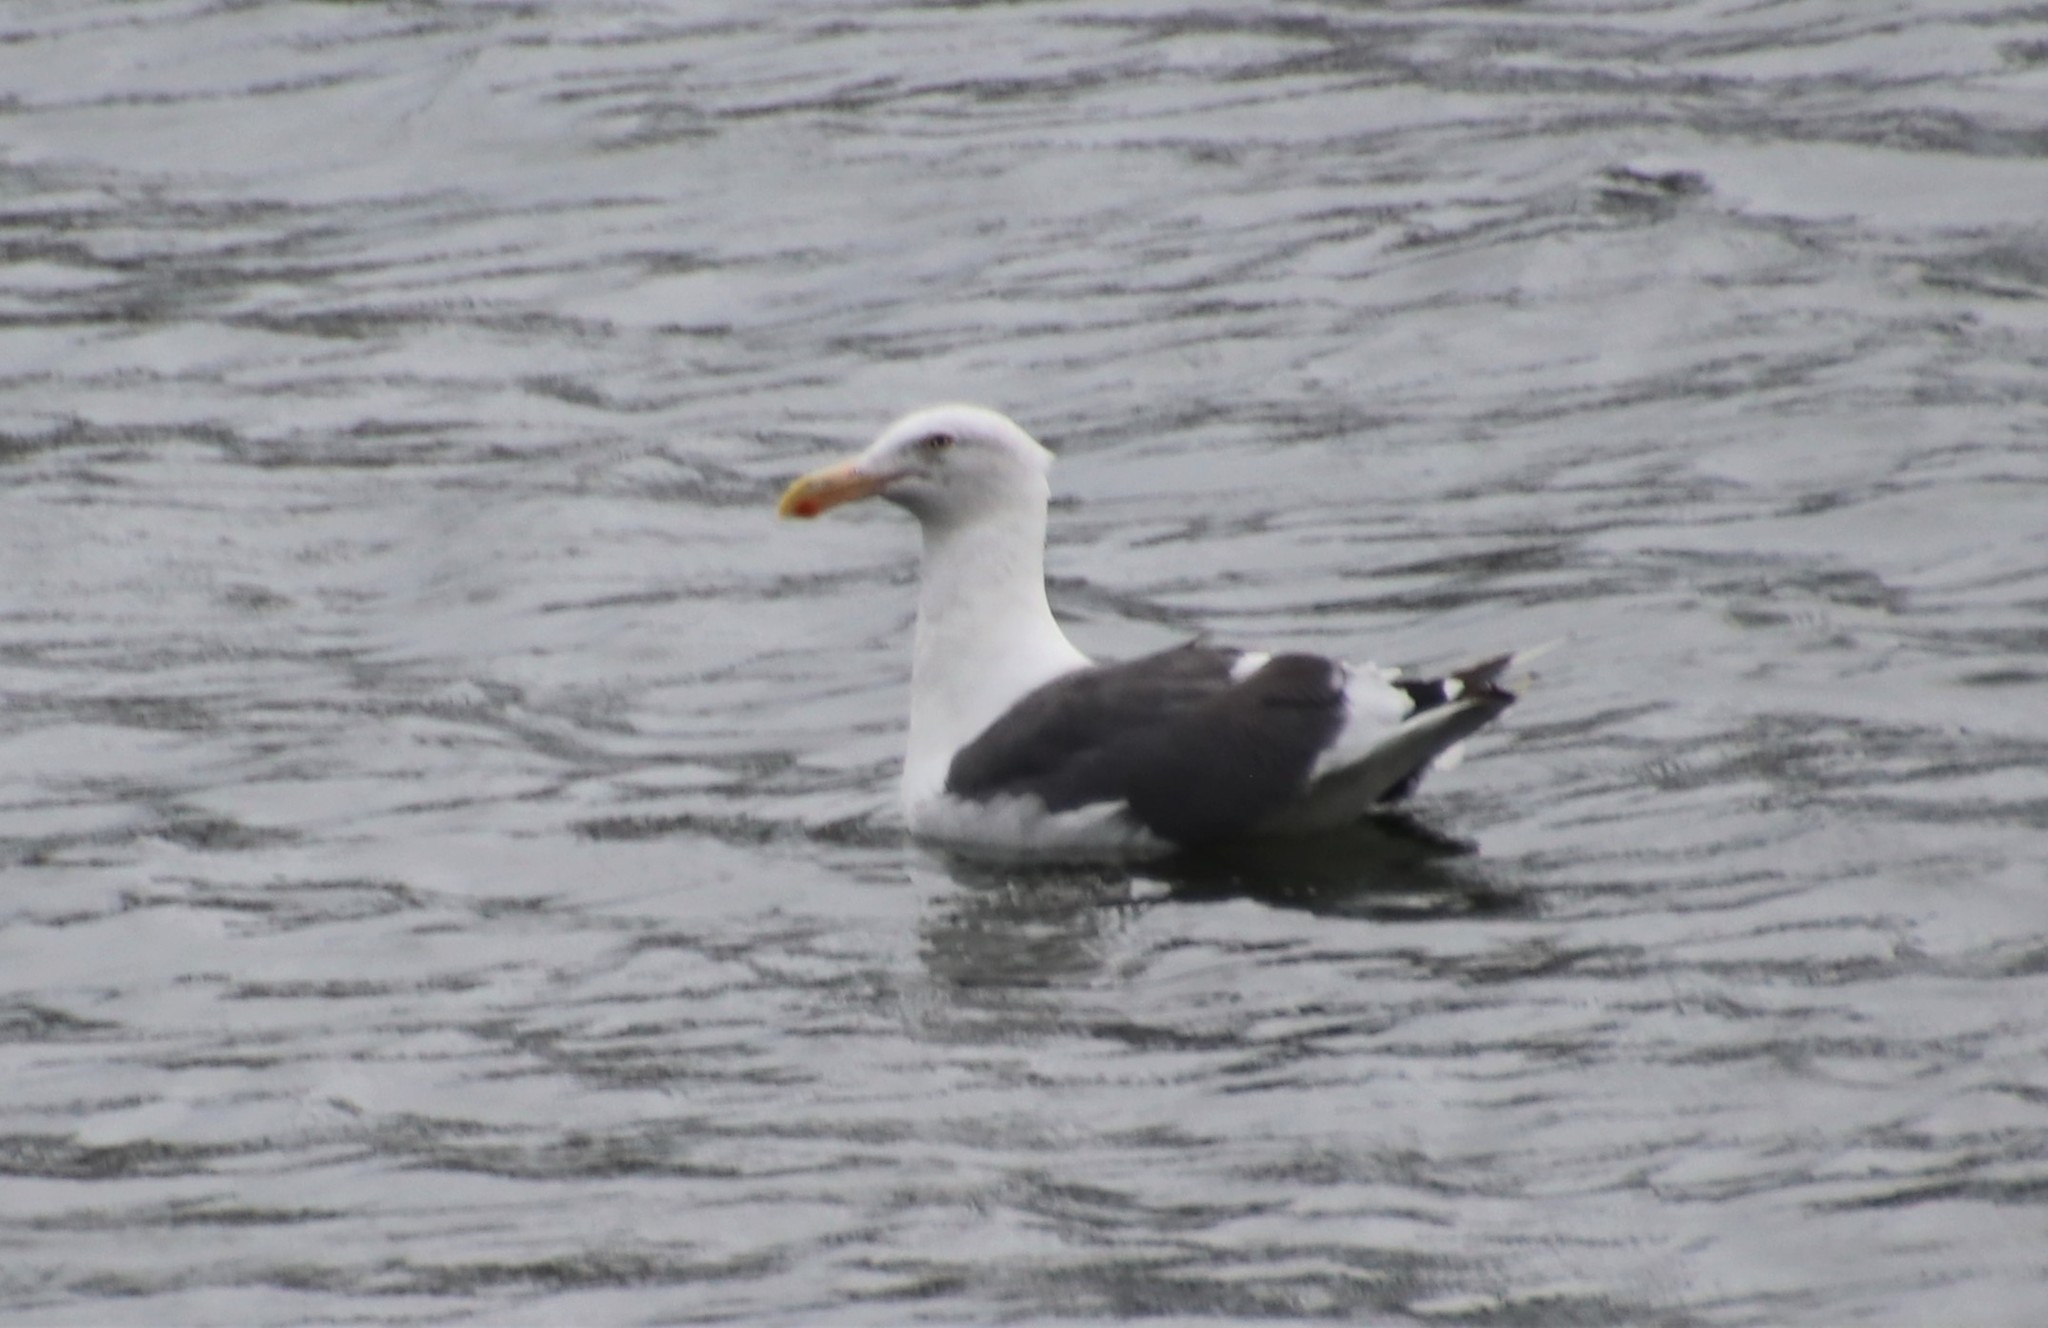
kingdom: Animalia
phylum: Chordata
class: Aves
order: Charadriiformes
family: Laridae
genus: Larus
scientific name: Larus occidentalis
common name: Western gull
